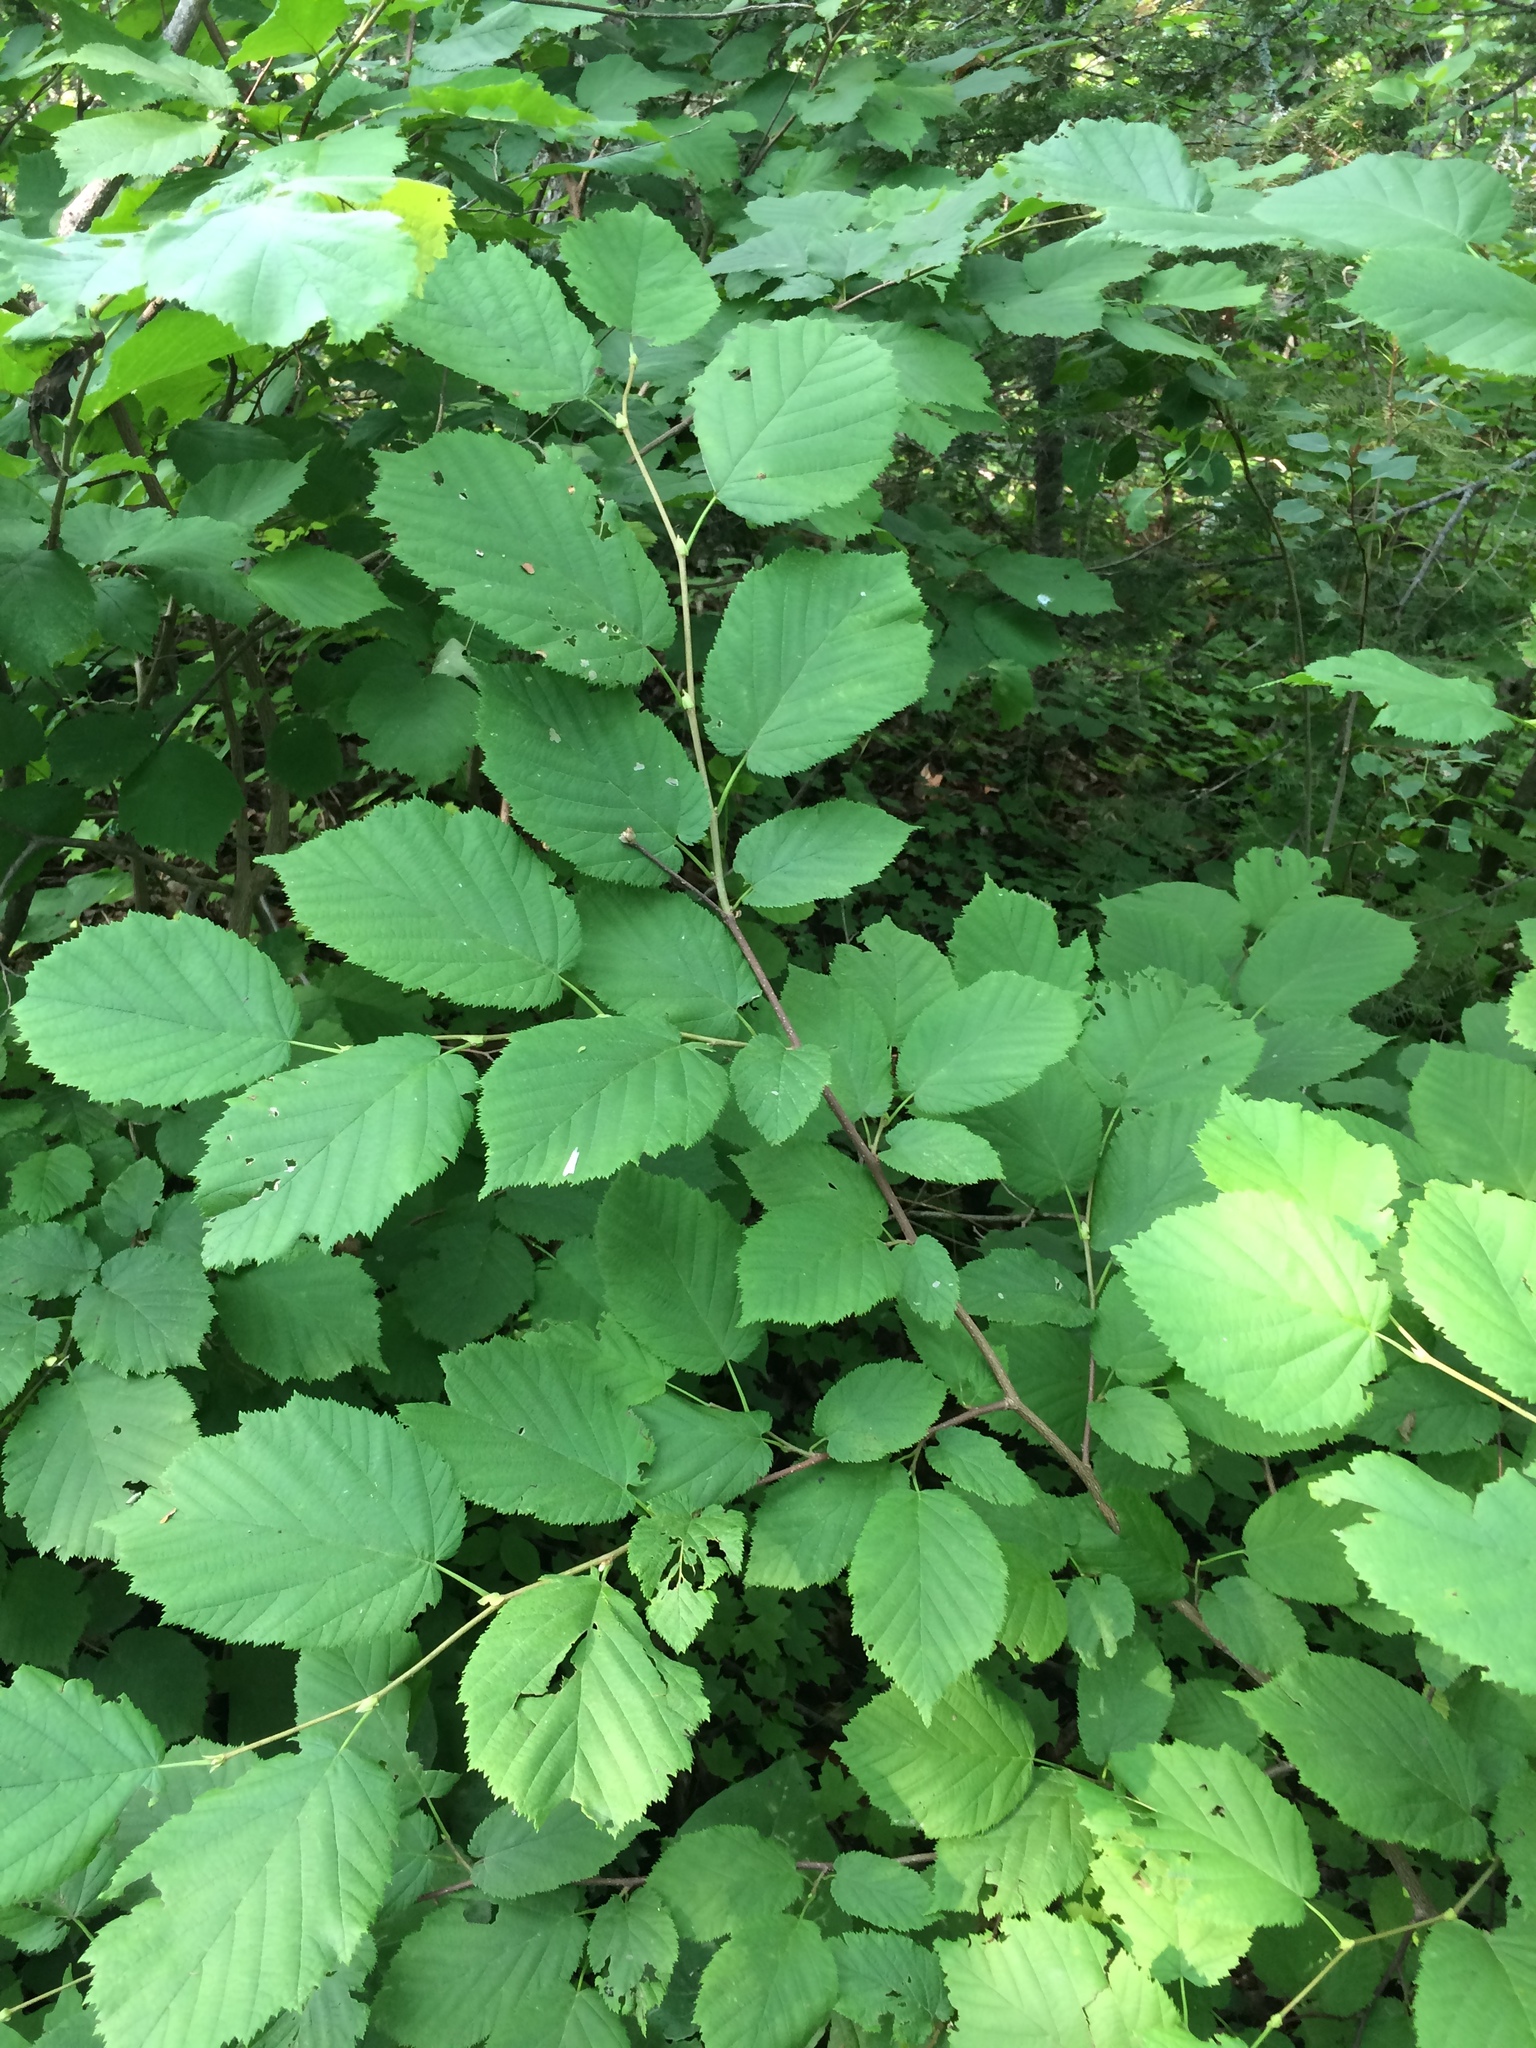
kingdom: Plantae
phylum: Tracheophyta
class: Magnoliopsida
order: Fagales
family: Betulaceae
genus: Corylus
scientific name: Corylus cornuta
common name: Beaked hazel
